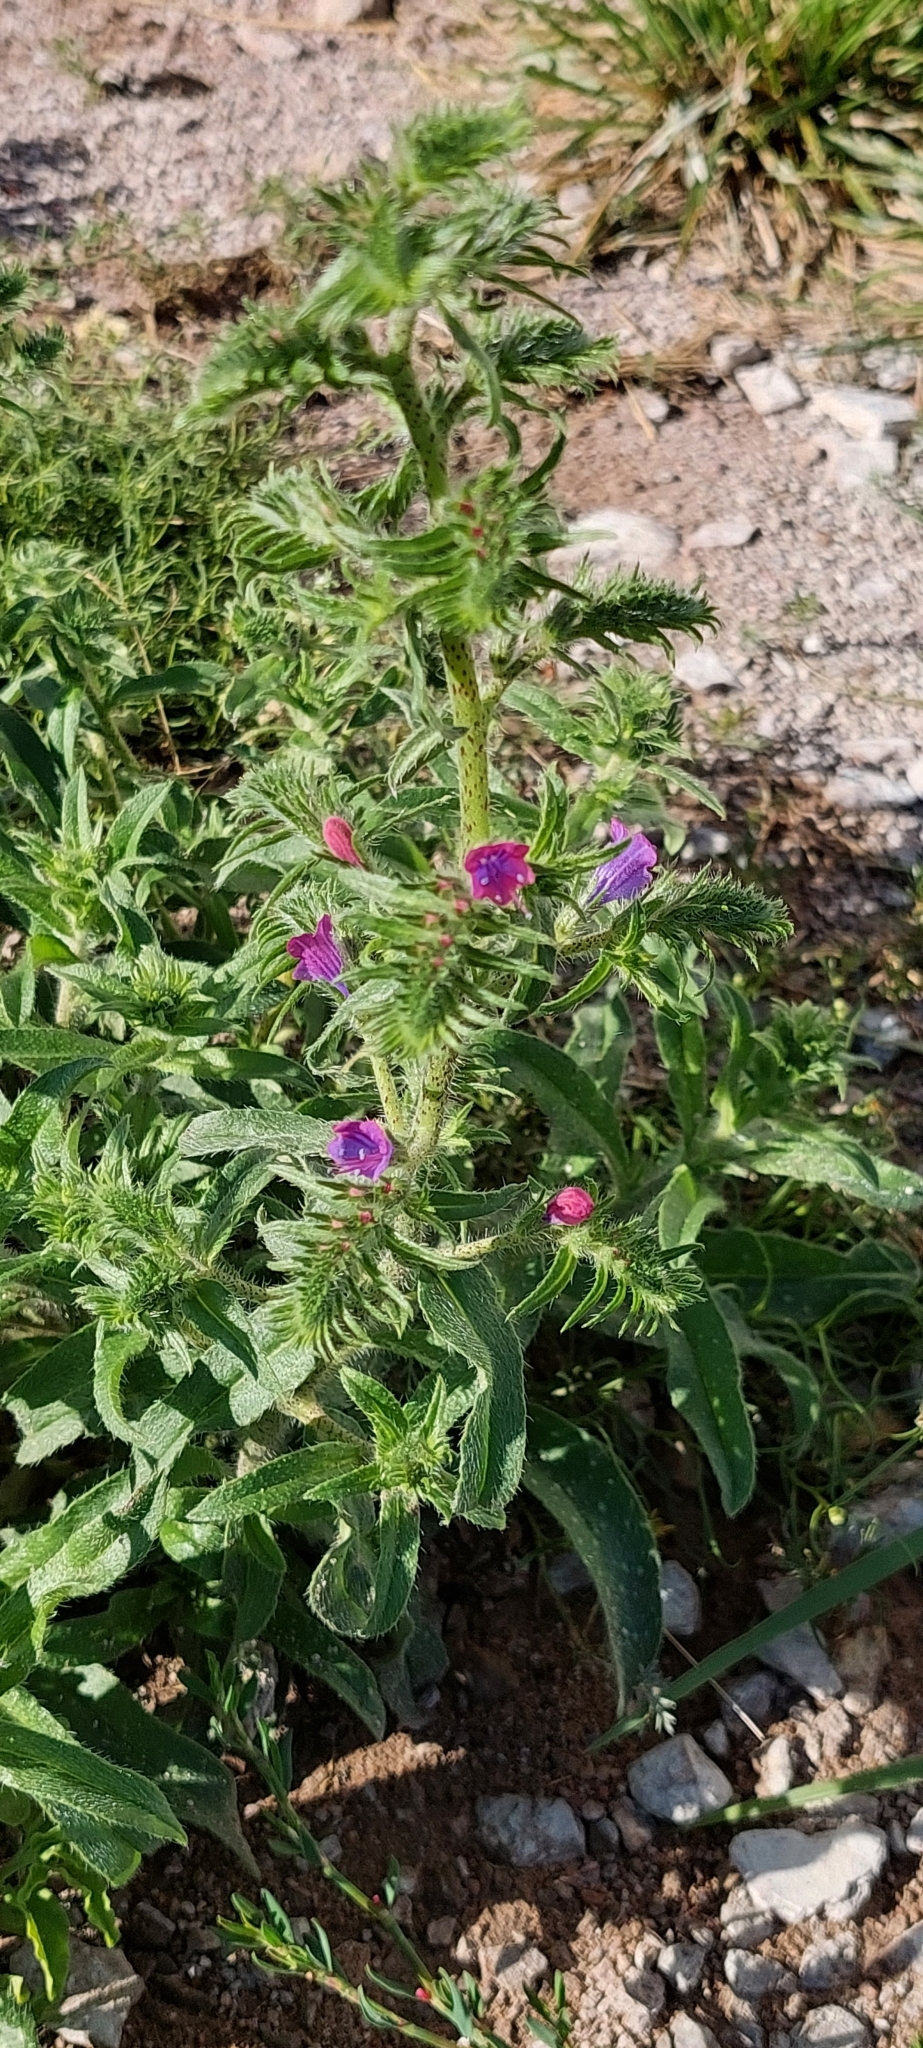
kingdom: Plantae
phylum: Tracheophyta
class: Magnoliopsida
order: Boraginales
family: Boraginaceae
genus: Echium
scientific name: Echium vulgare
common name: Common viper's bugloss
